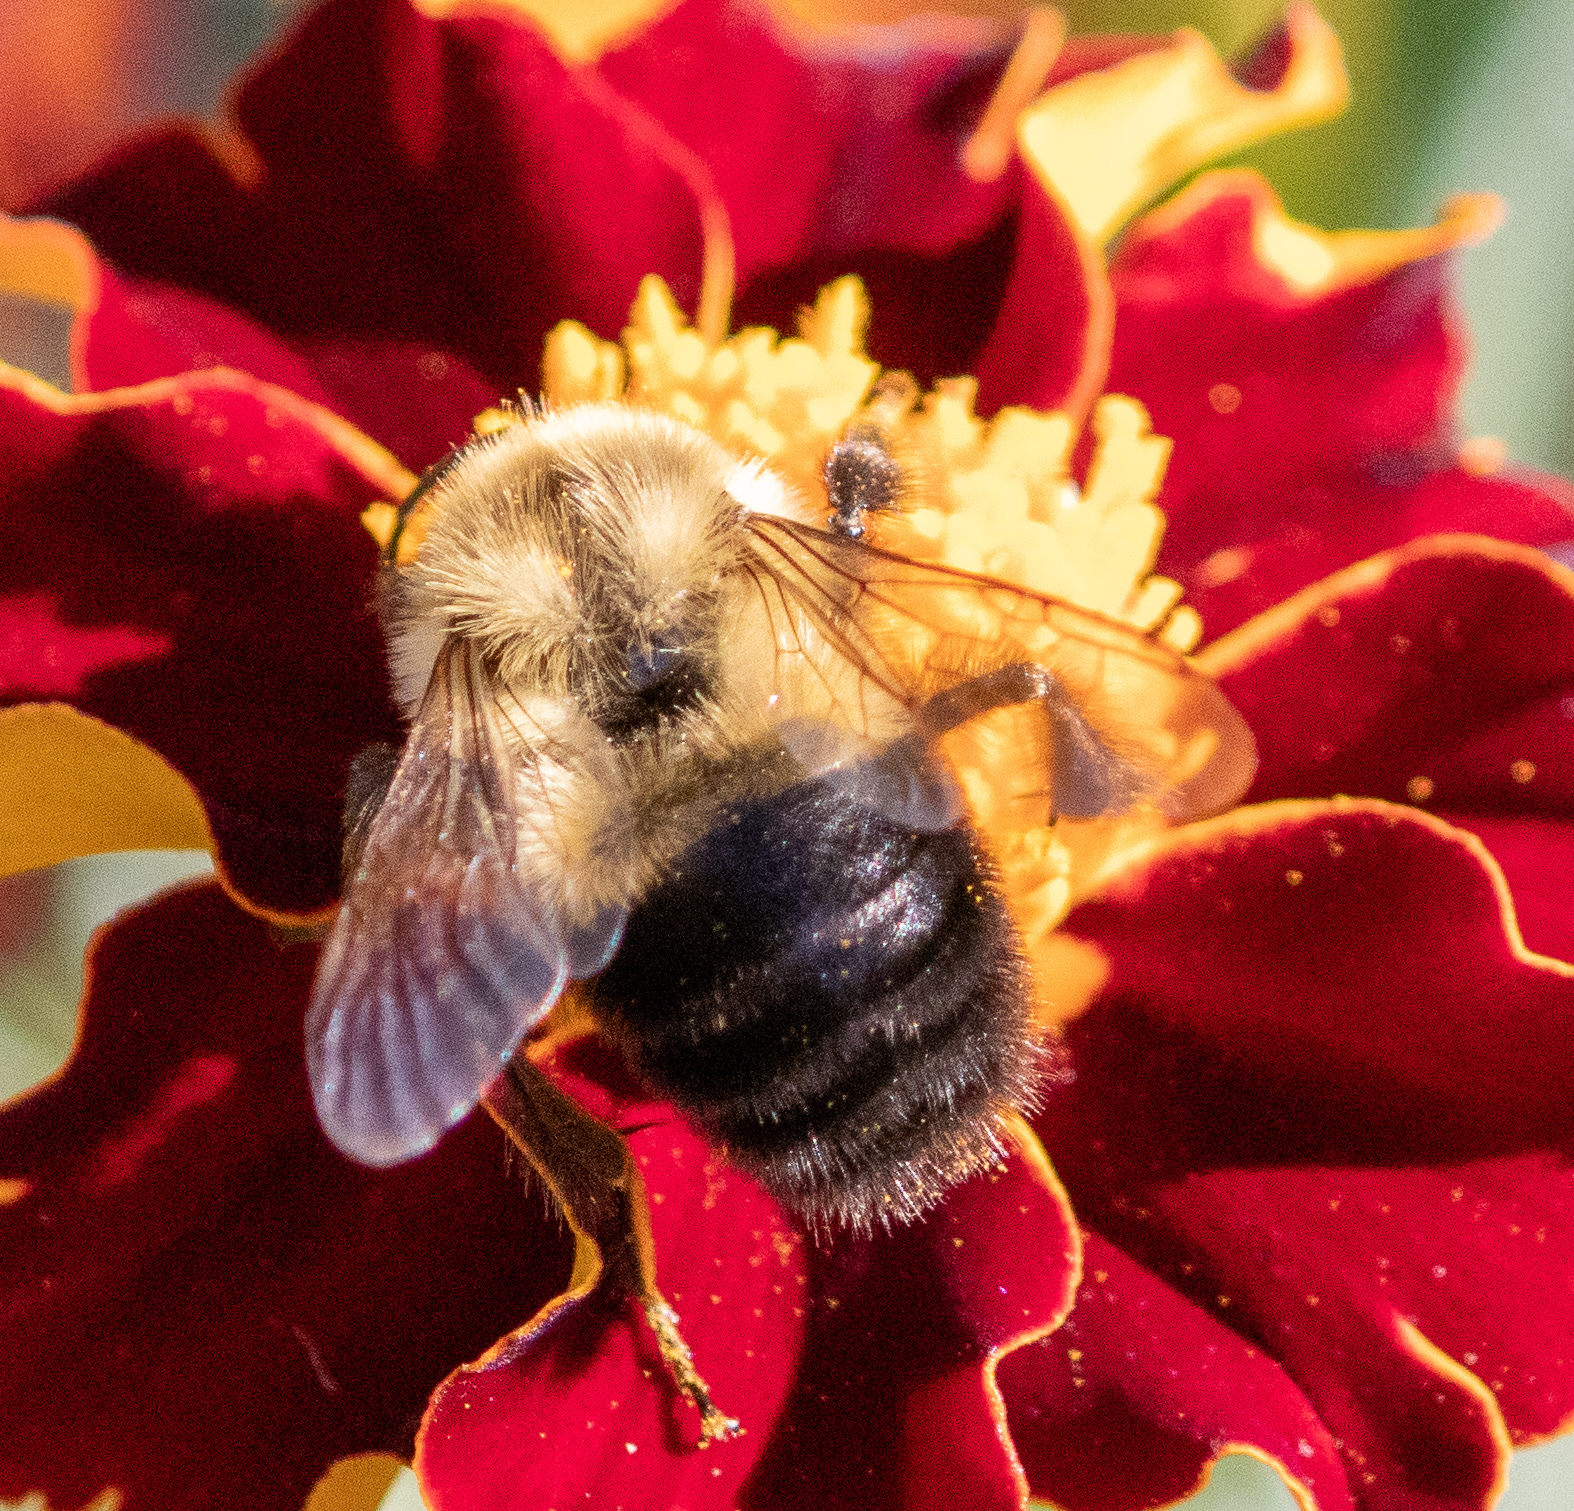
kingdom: Animalia
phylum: Arthropoda
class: Insecta
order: Hymenoptera
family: Apidae
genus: Bombus
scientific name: Bombus impatiens
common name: Common eastern bumble bee
